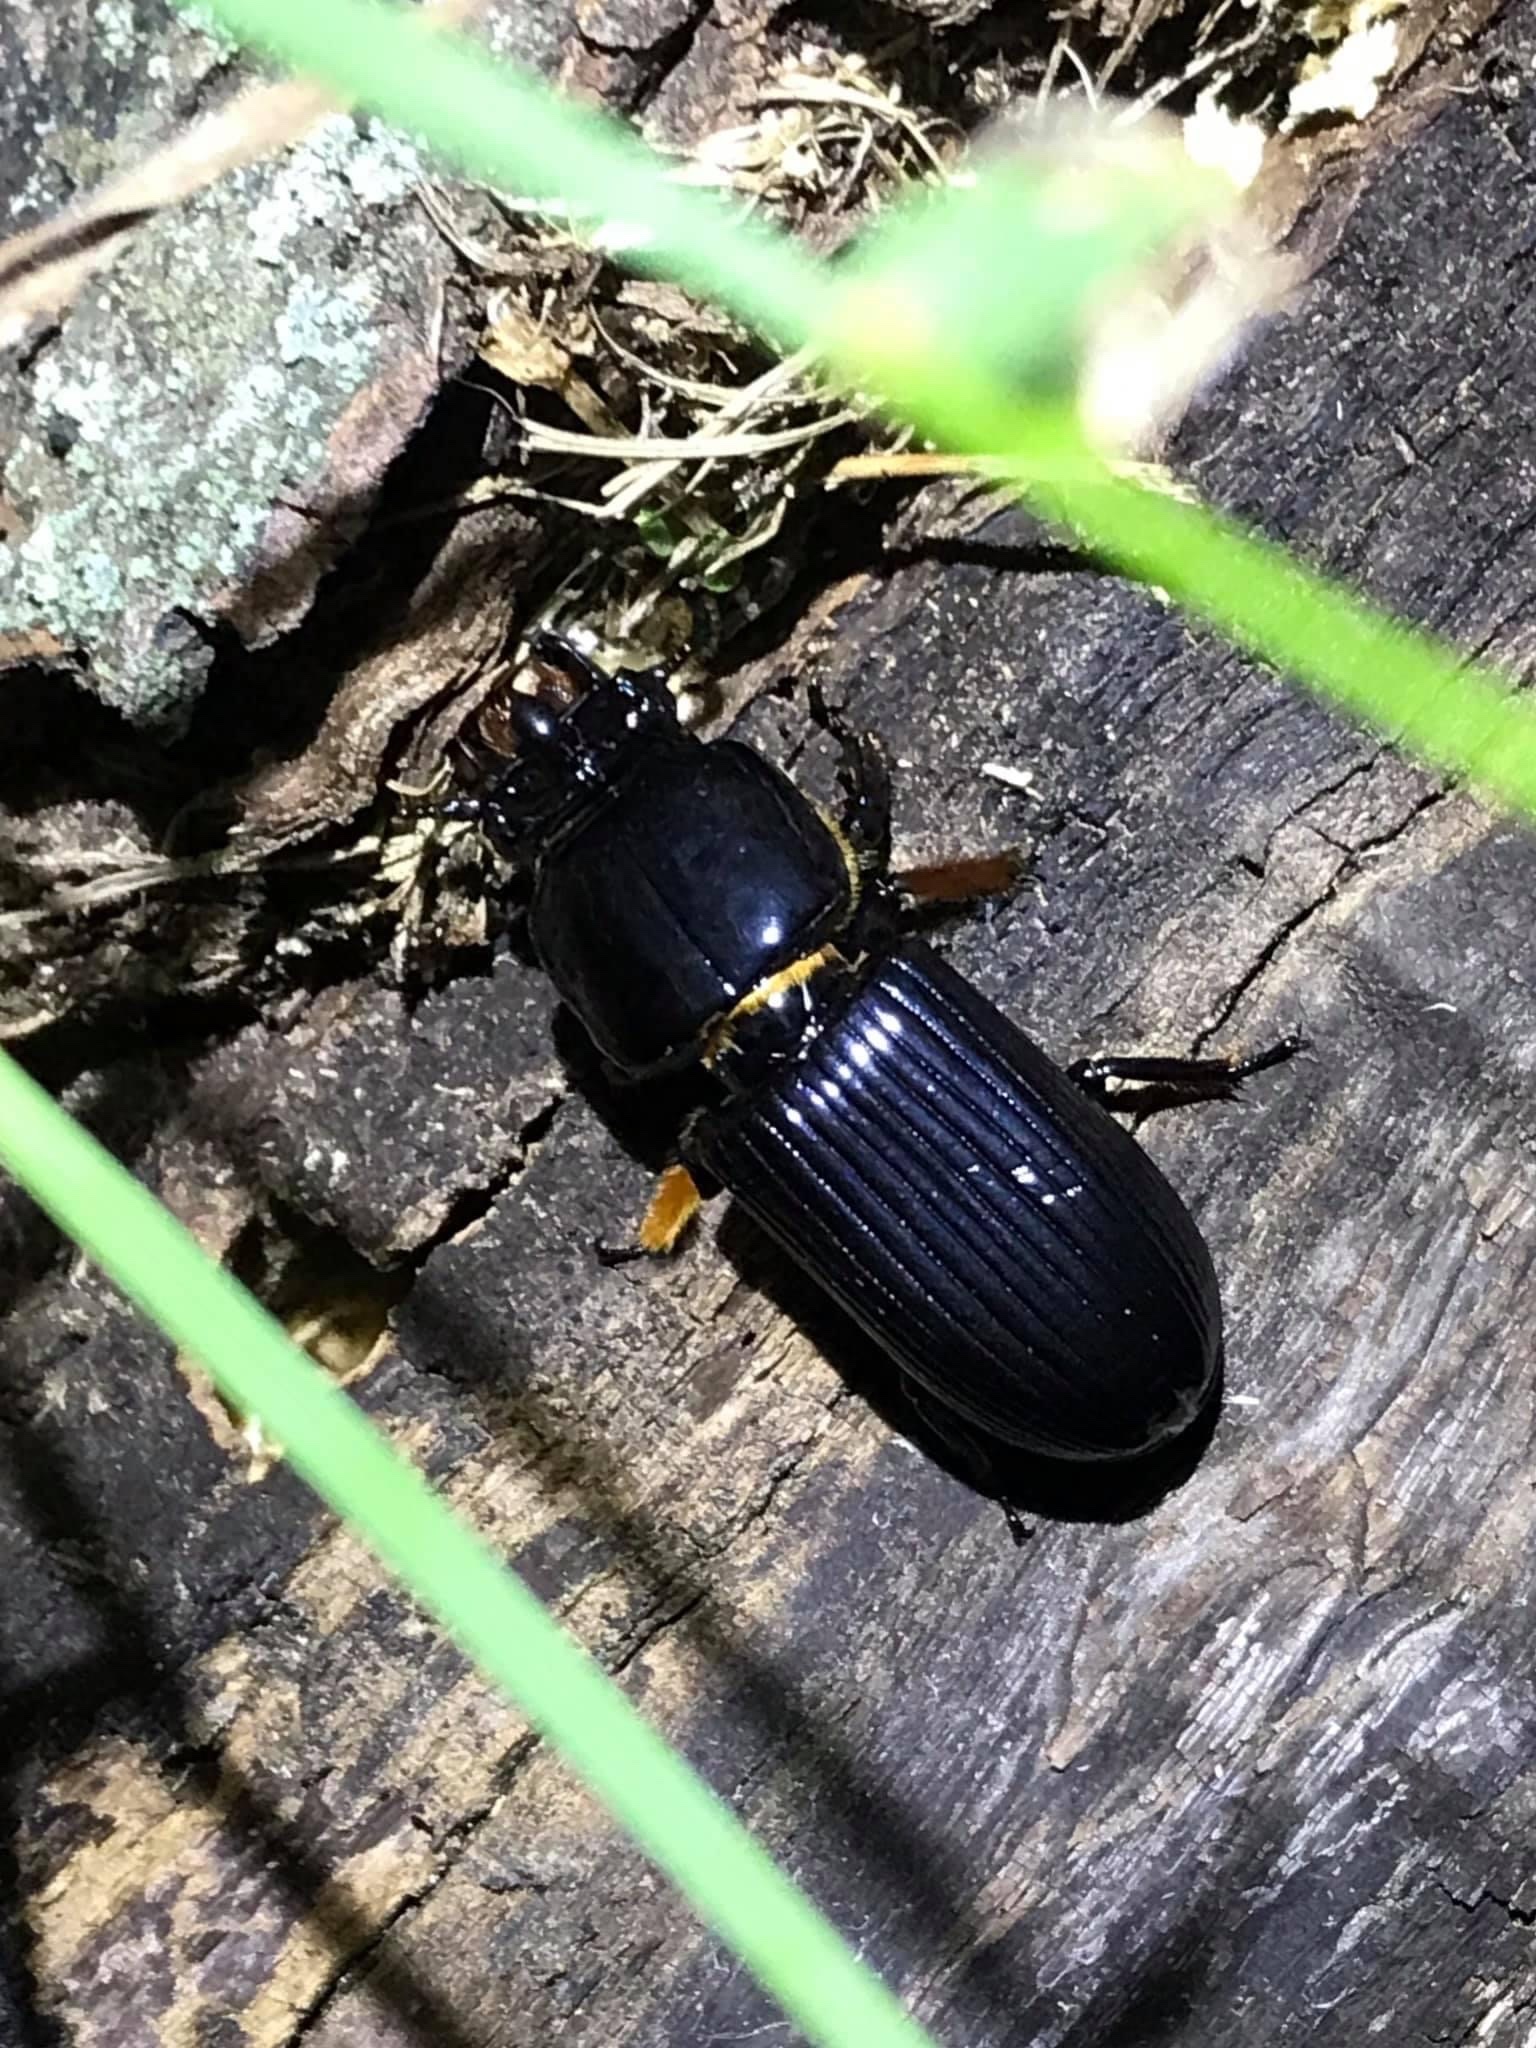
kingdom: Animalia
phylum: Arthropoda
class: Insecta
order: Coleoptera
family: Passalidae
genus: Odontotaenius
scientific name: Odontotaenius disjunctus
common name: Patent leather beetle
